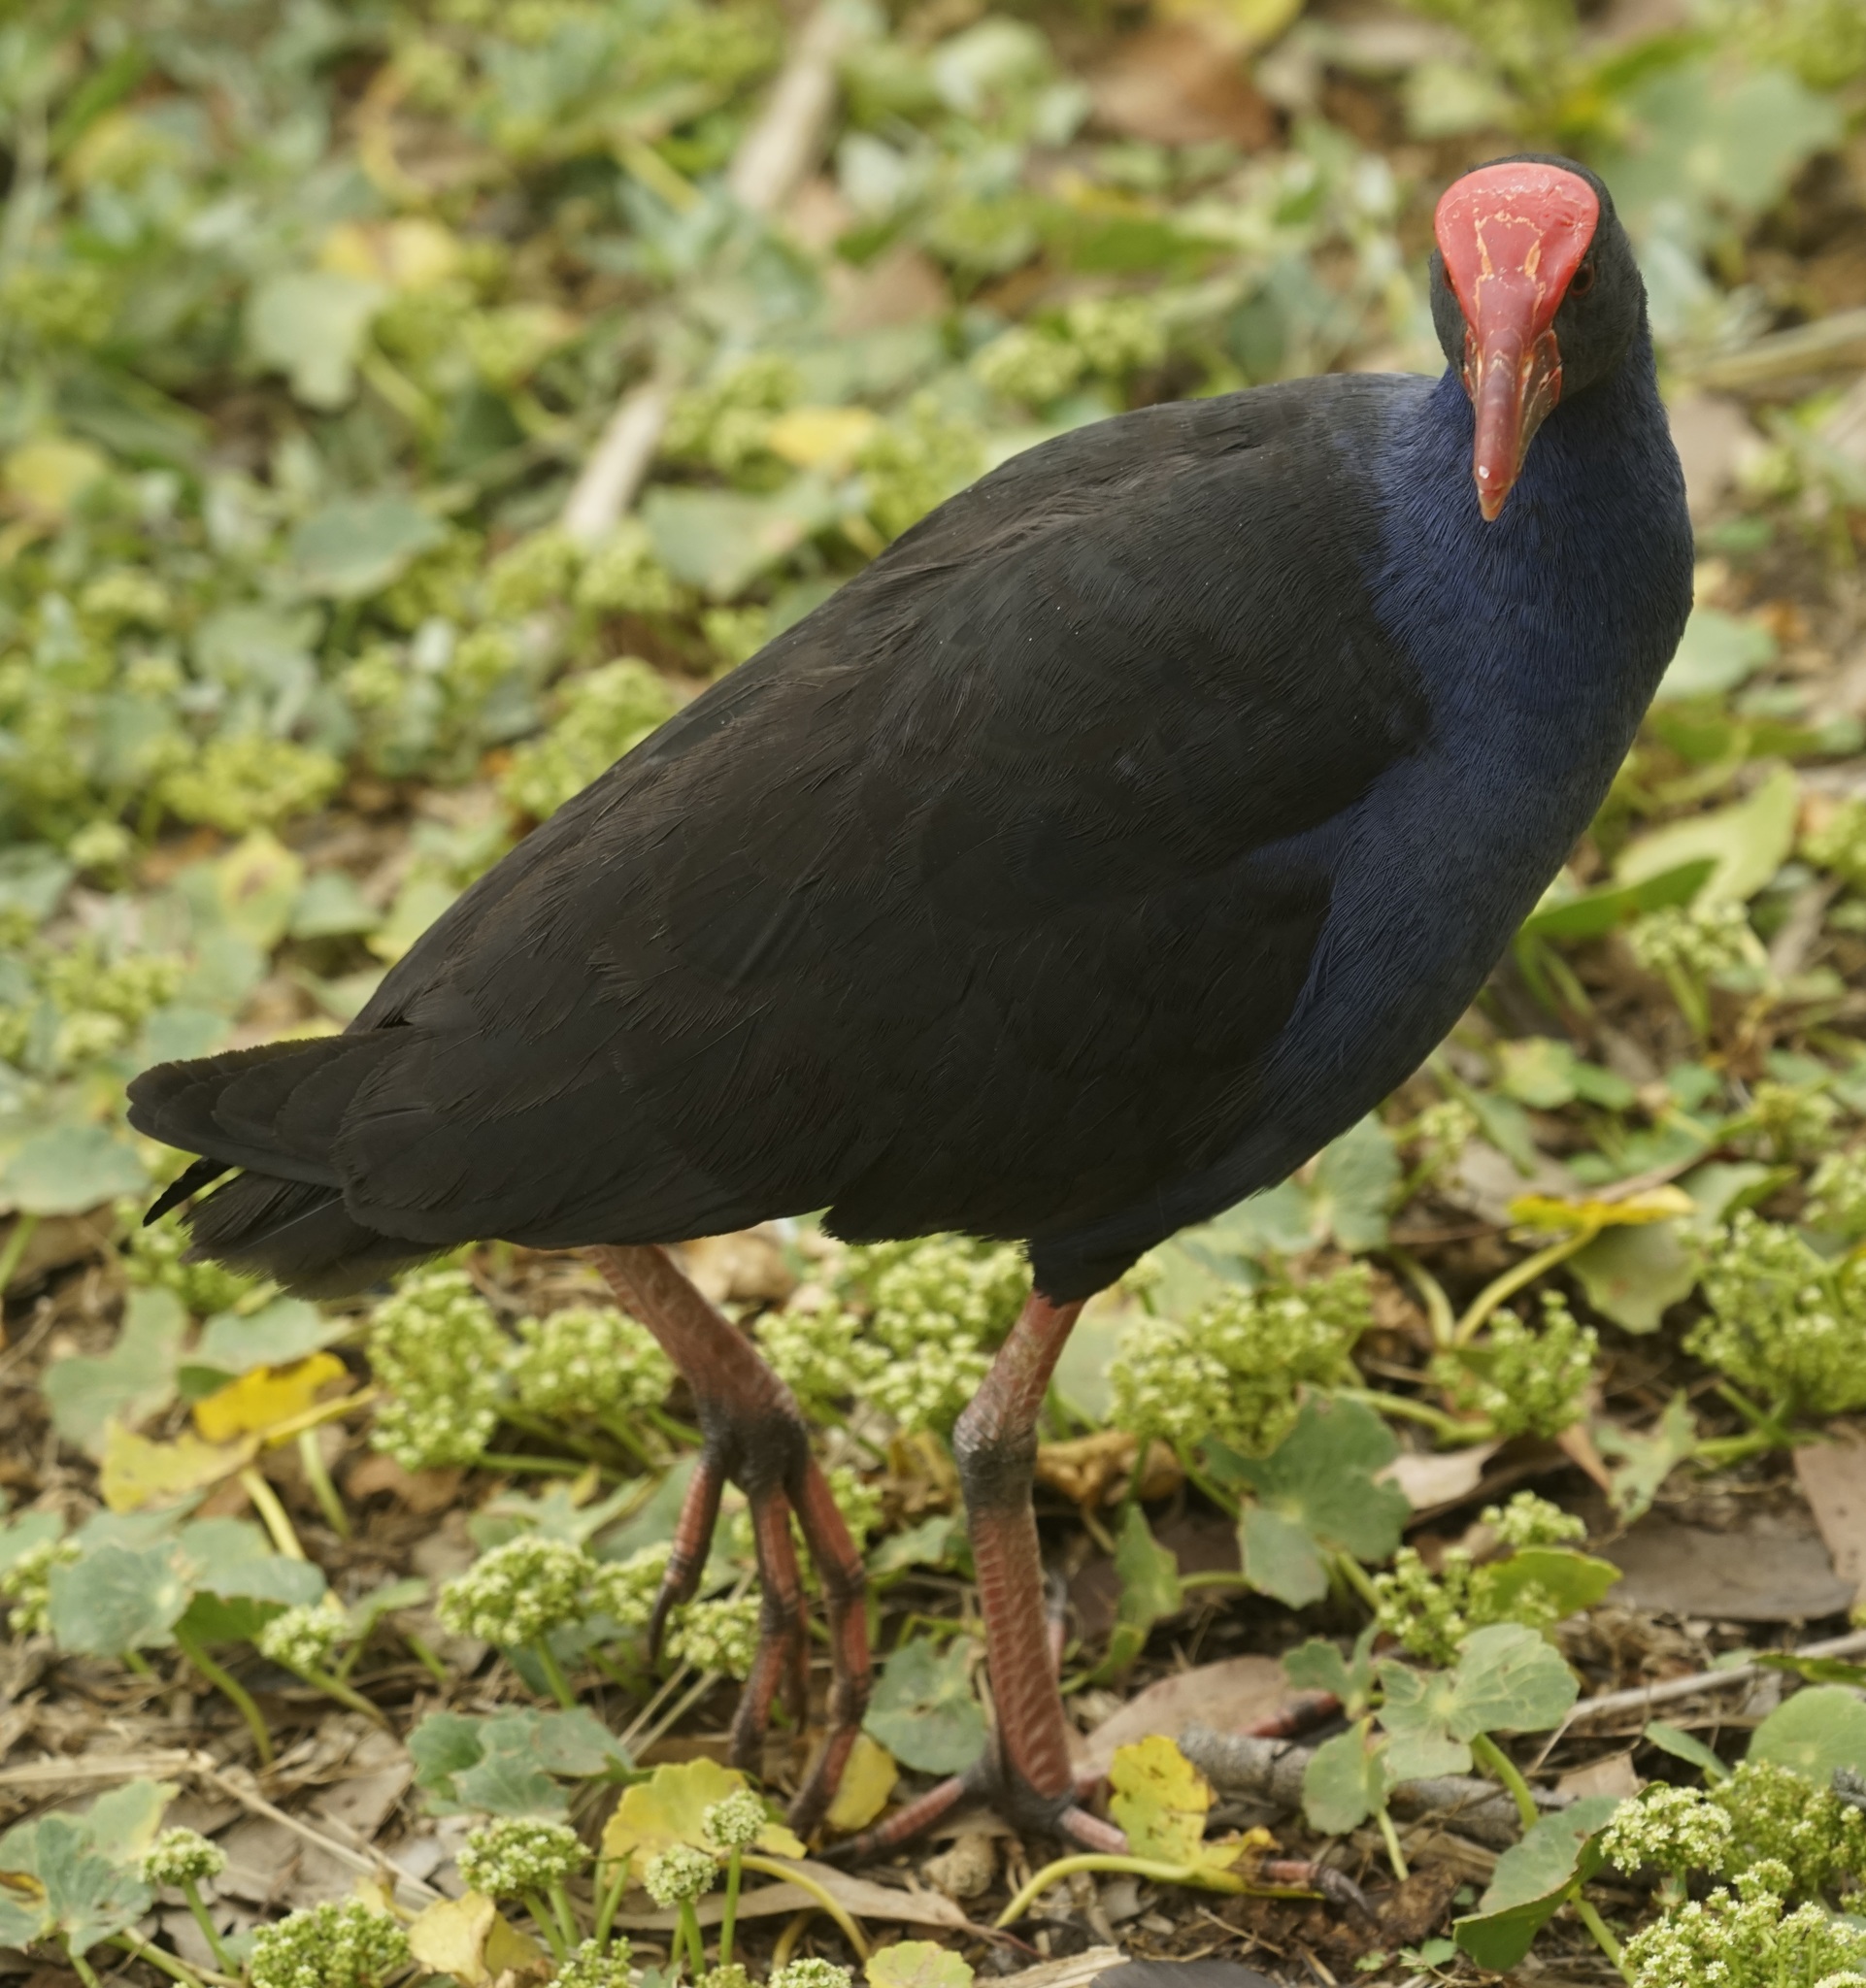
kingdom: Animalia
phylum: Chordata
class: Aves
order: Gruiformes
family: Rallidae
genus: Porphyrio
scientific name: Porphyrio melanotus
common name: Australasian swamphen
